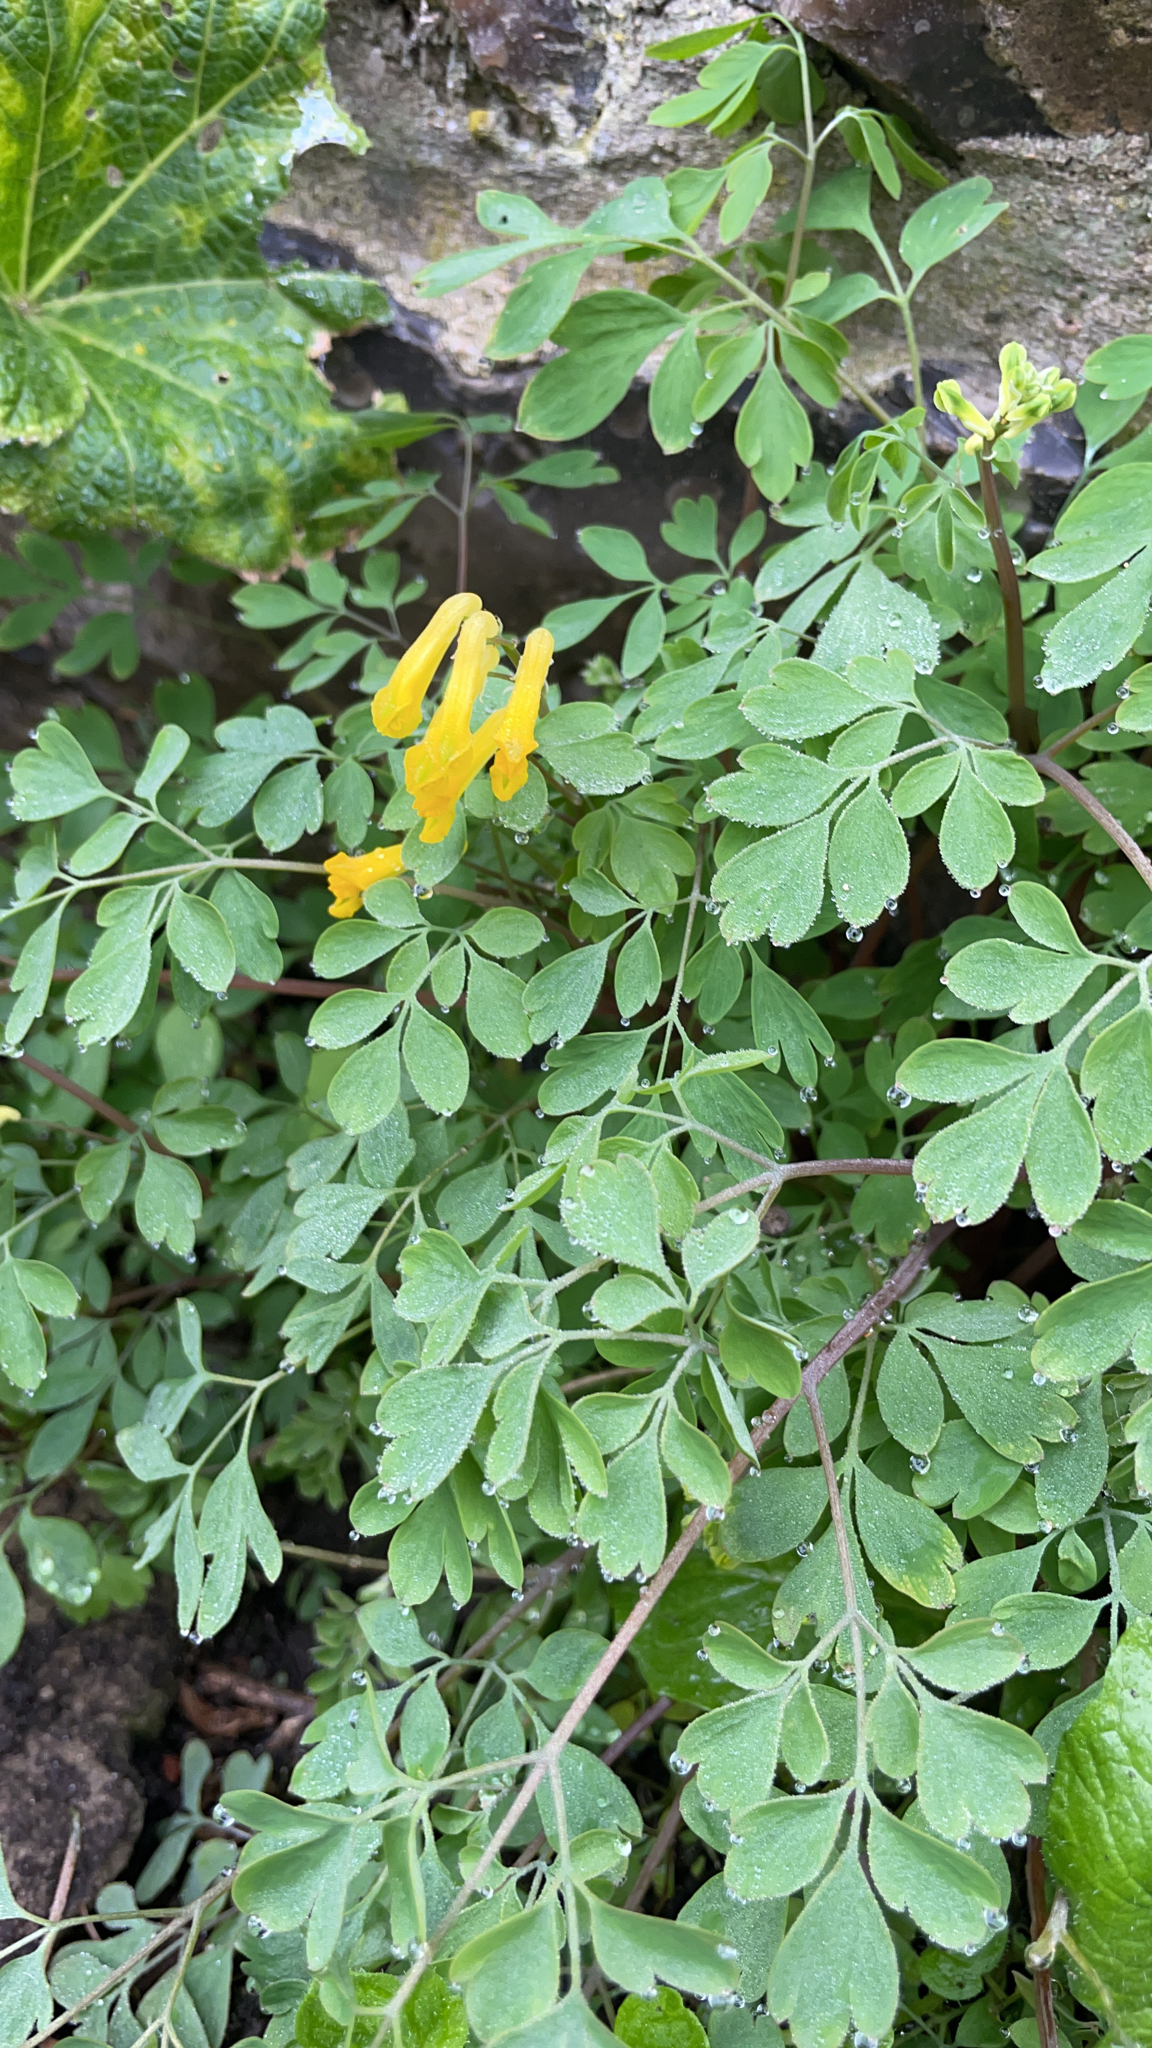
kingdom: Plantae
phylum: Tracheophyta
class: Magnoliopsida
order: Ranunculales
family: Papaveraceae
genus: Pseudofumaria
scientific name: Pseudofumaria lutea
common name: Yellow corydalis
